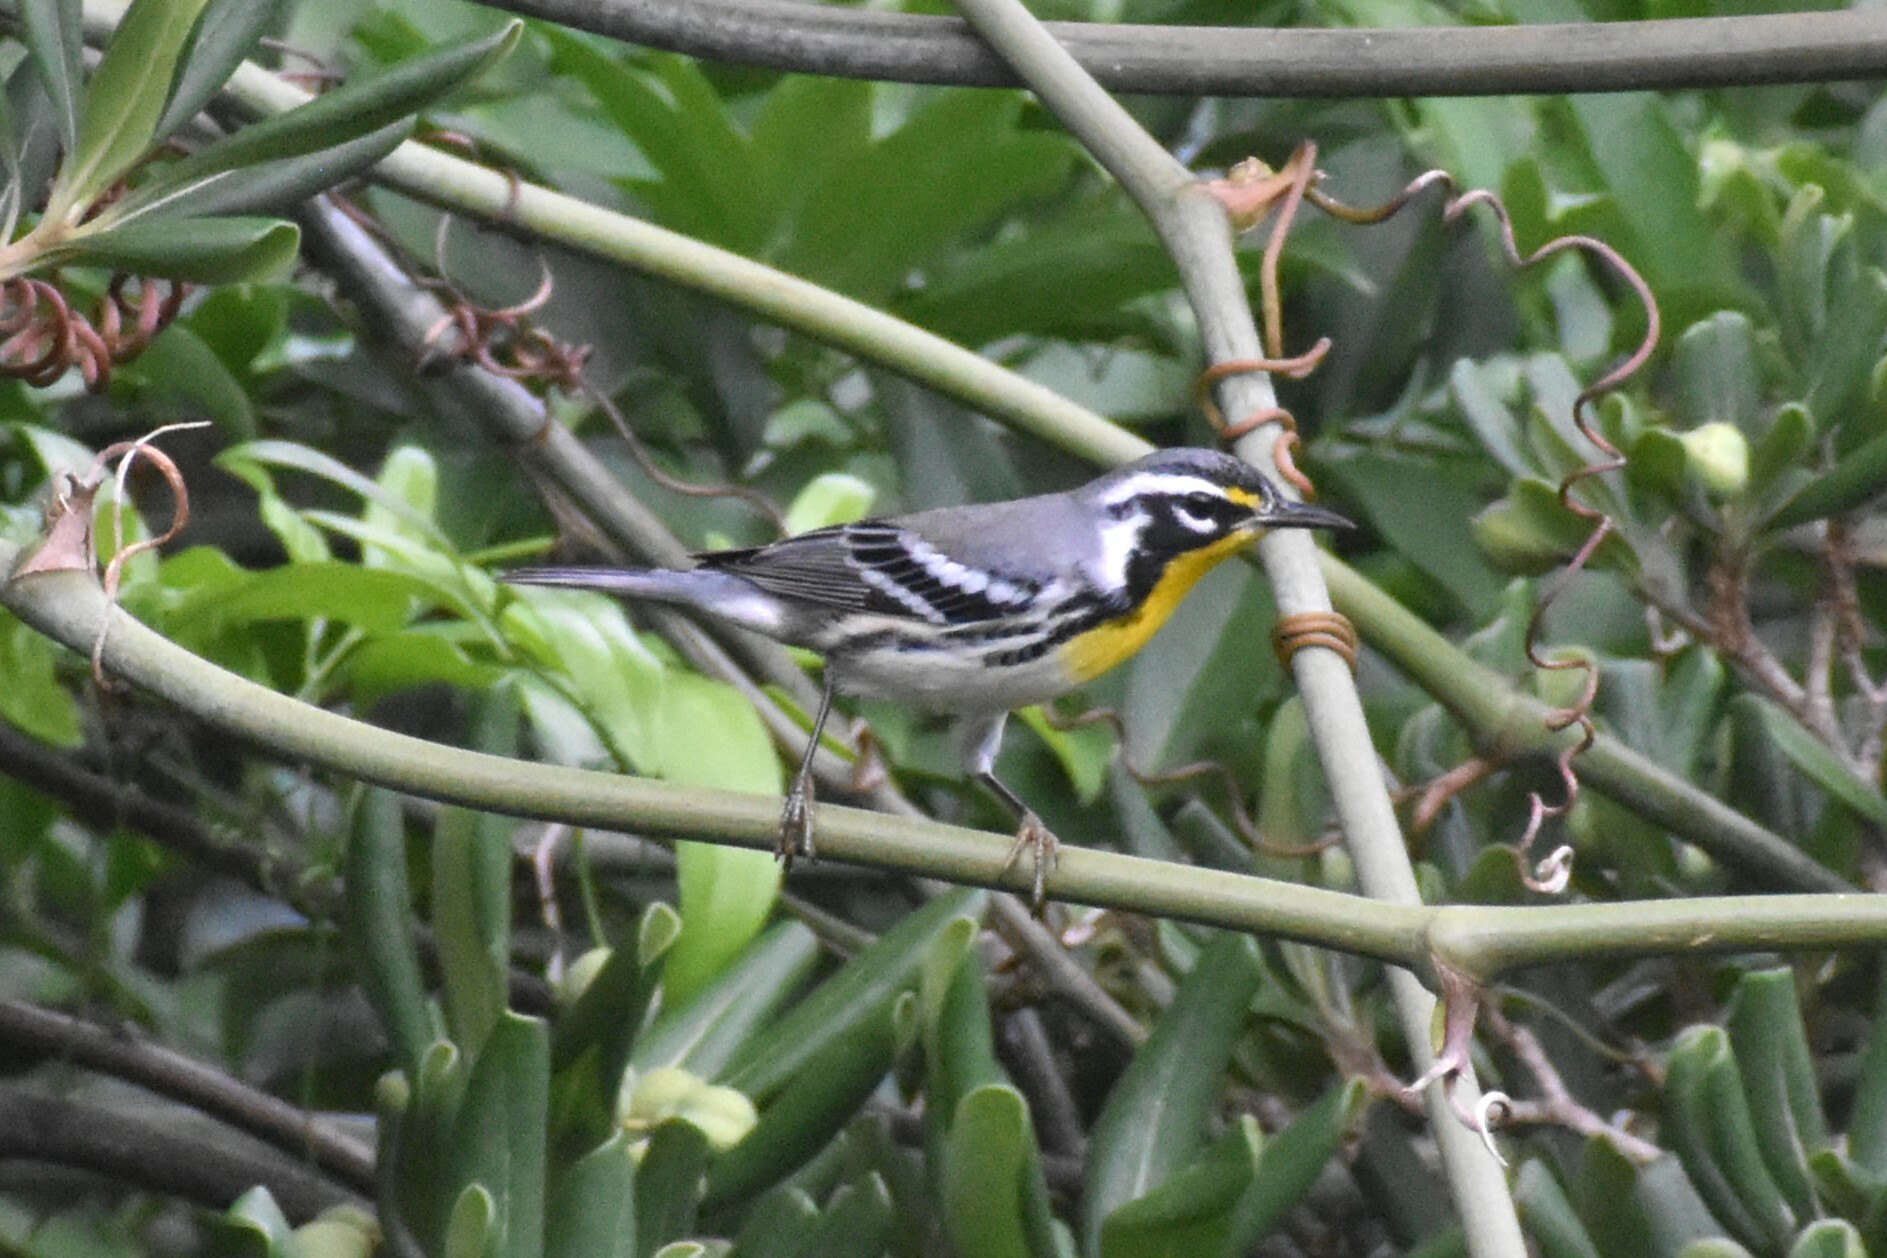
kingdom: Animalia
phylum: Chordata
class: Aves
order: Passeriformes
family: Parulidae
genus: Setophaga
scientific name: Setophaga dominica
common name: Yellow-throated warbler
